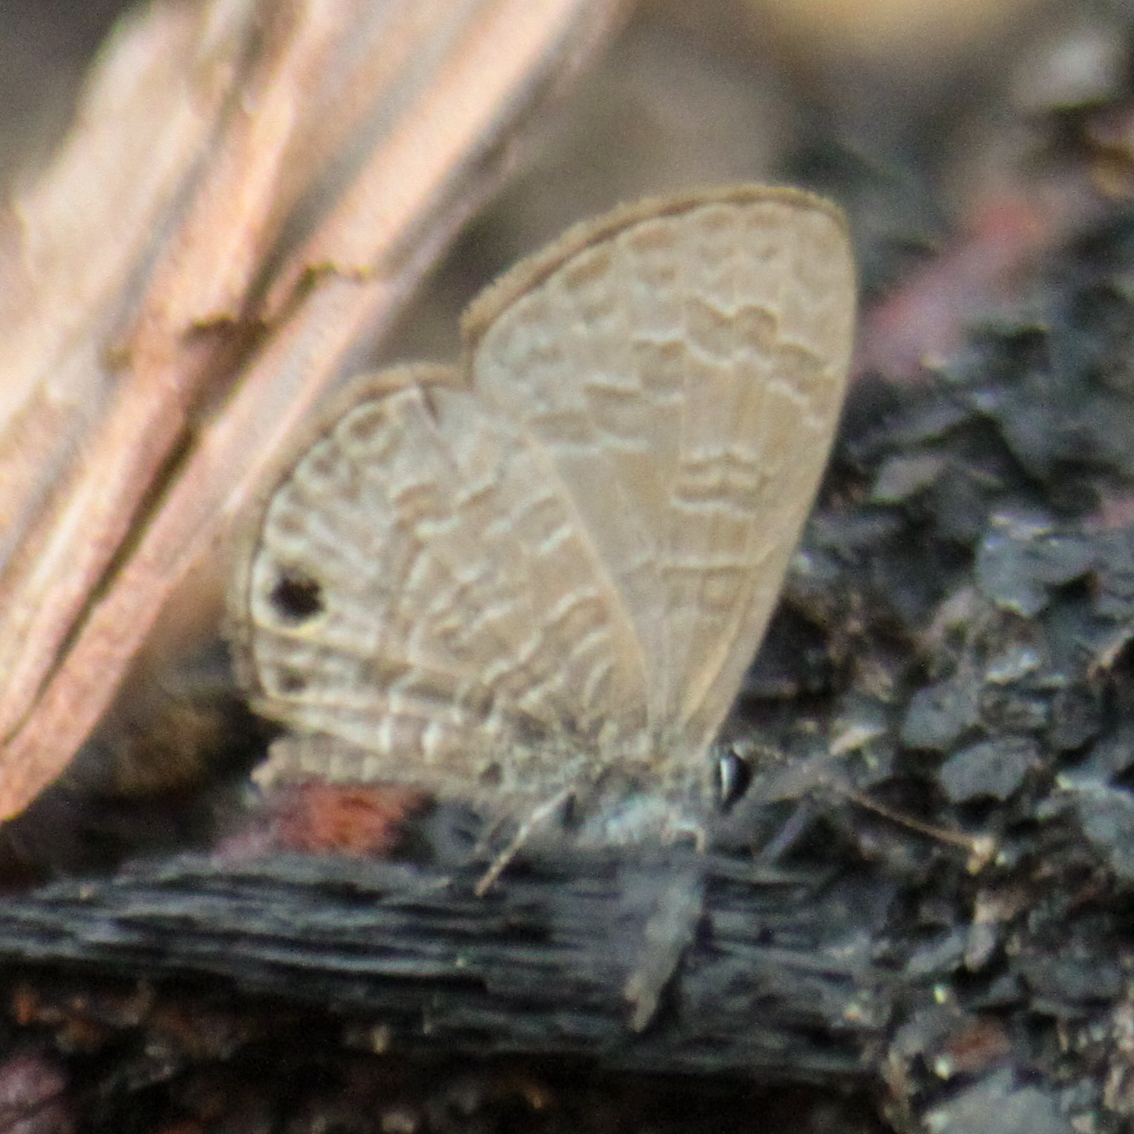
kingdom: Animalia
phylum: Arthropoda
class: Insecta
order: Lepidoptera
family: Lycaenidae
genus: Prosotas
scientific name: Prosotas dubiosa
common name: Tailless lineblue
